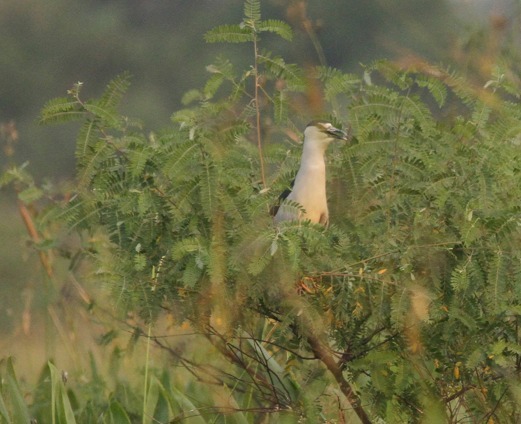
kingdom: Animalia
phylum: Chordata
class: Aves
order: Pelecaniformes
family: Ardeidae
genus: Nycticorax
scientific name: Nycticorax nycticorax
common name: Black-crowned night heron
